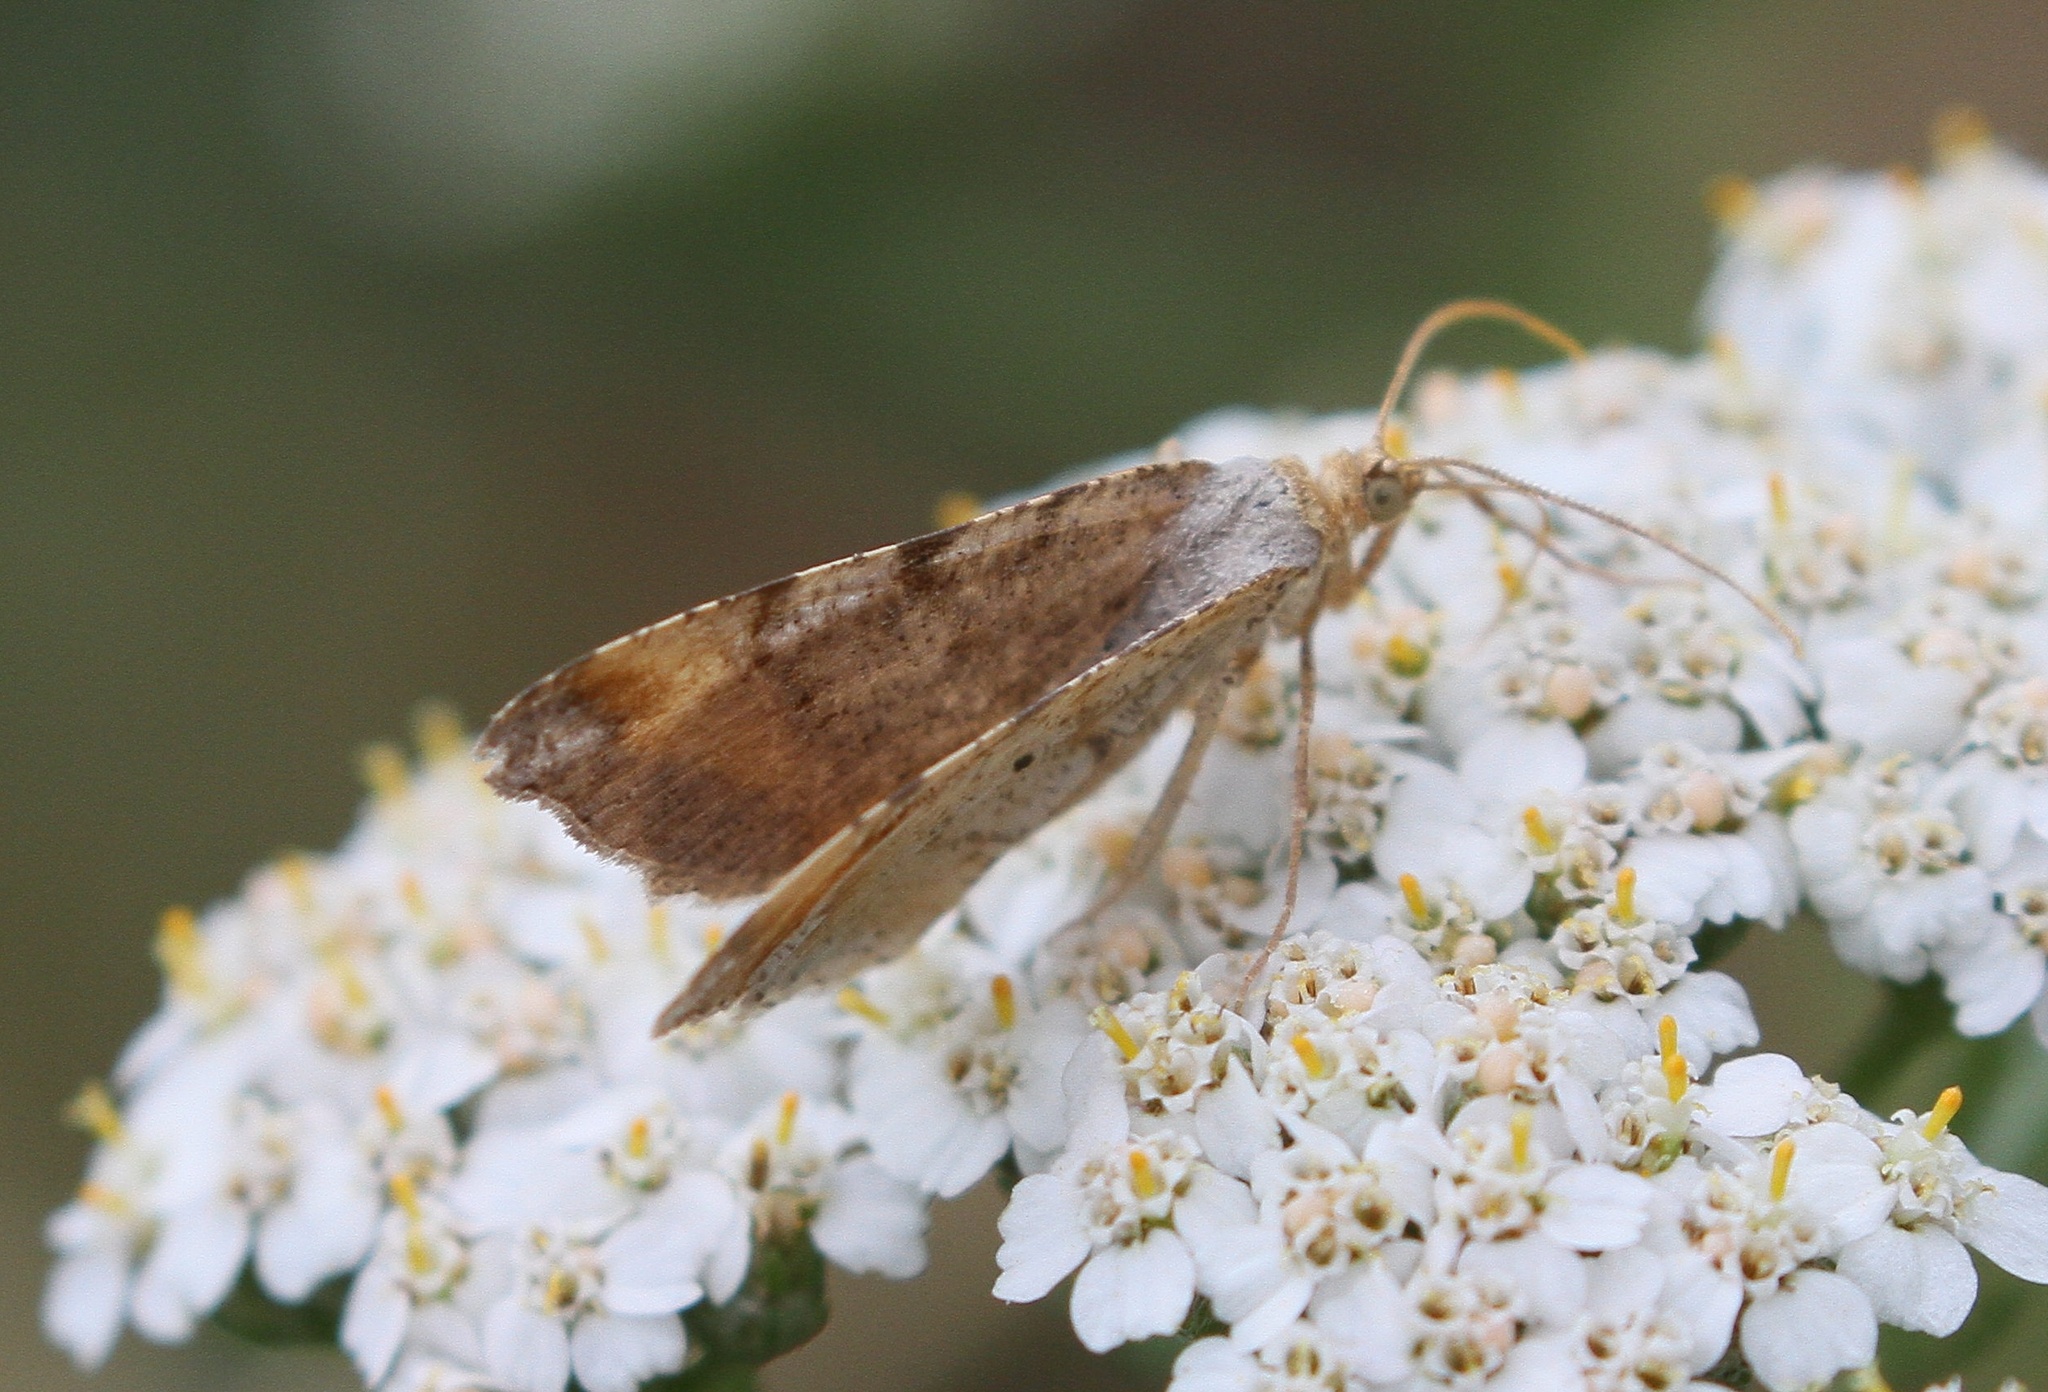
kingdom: Animalia
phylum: Arthropoda
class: Insecta
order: Lepidoptera
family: Geometridae
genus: Macaria
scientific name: Macaria liturata
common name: Tawny-barred angle
